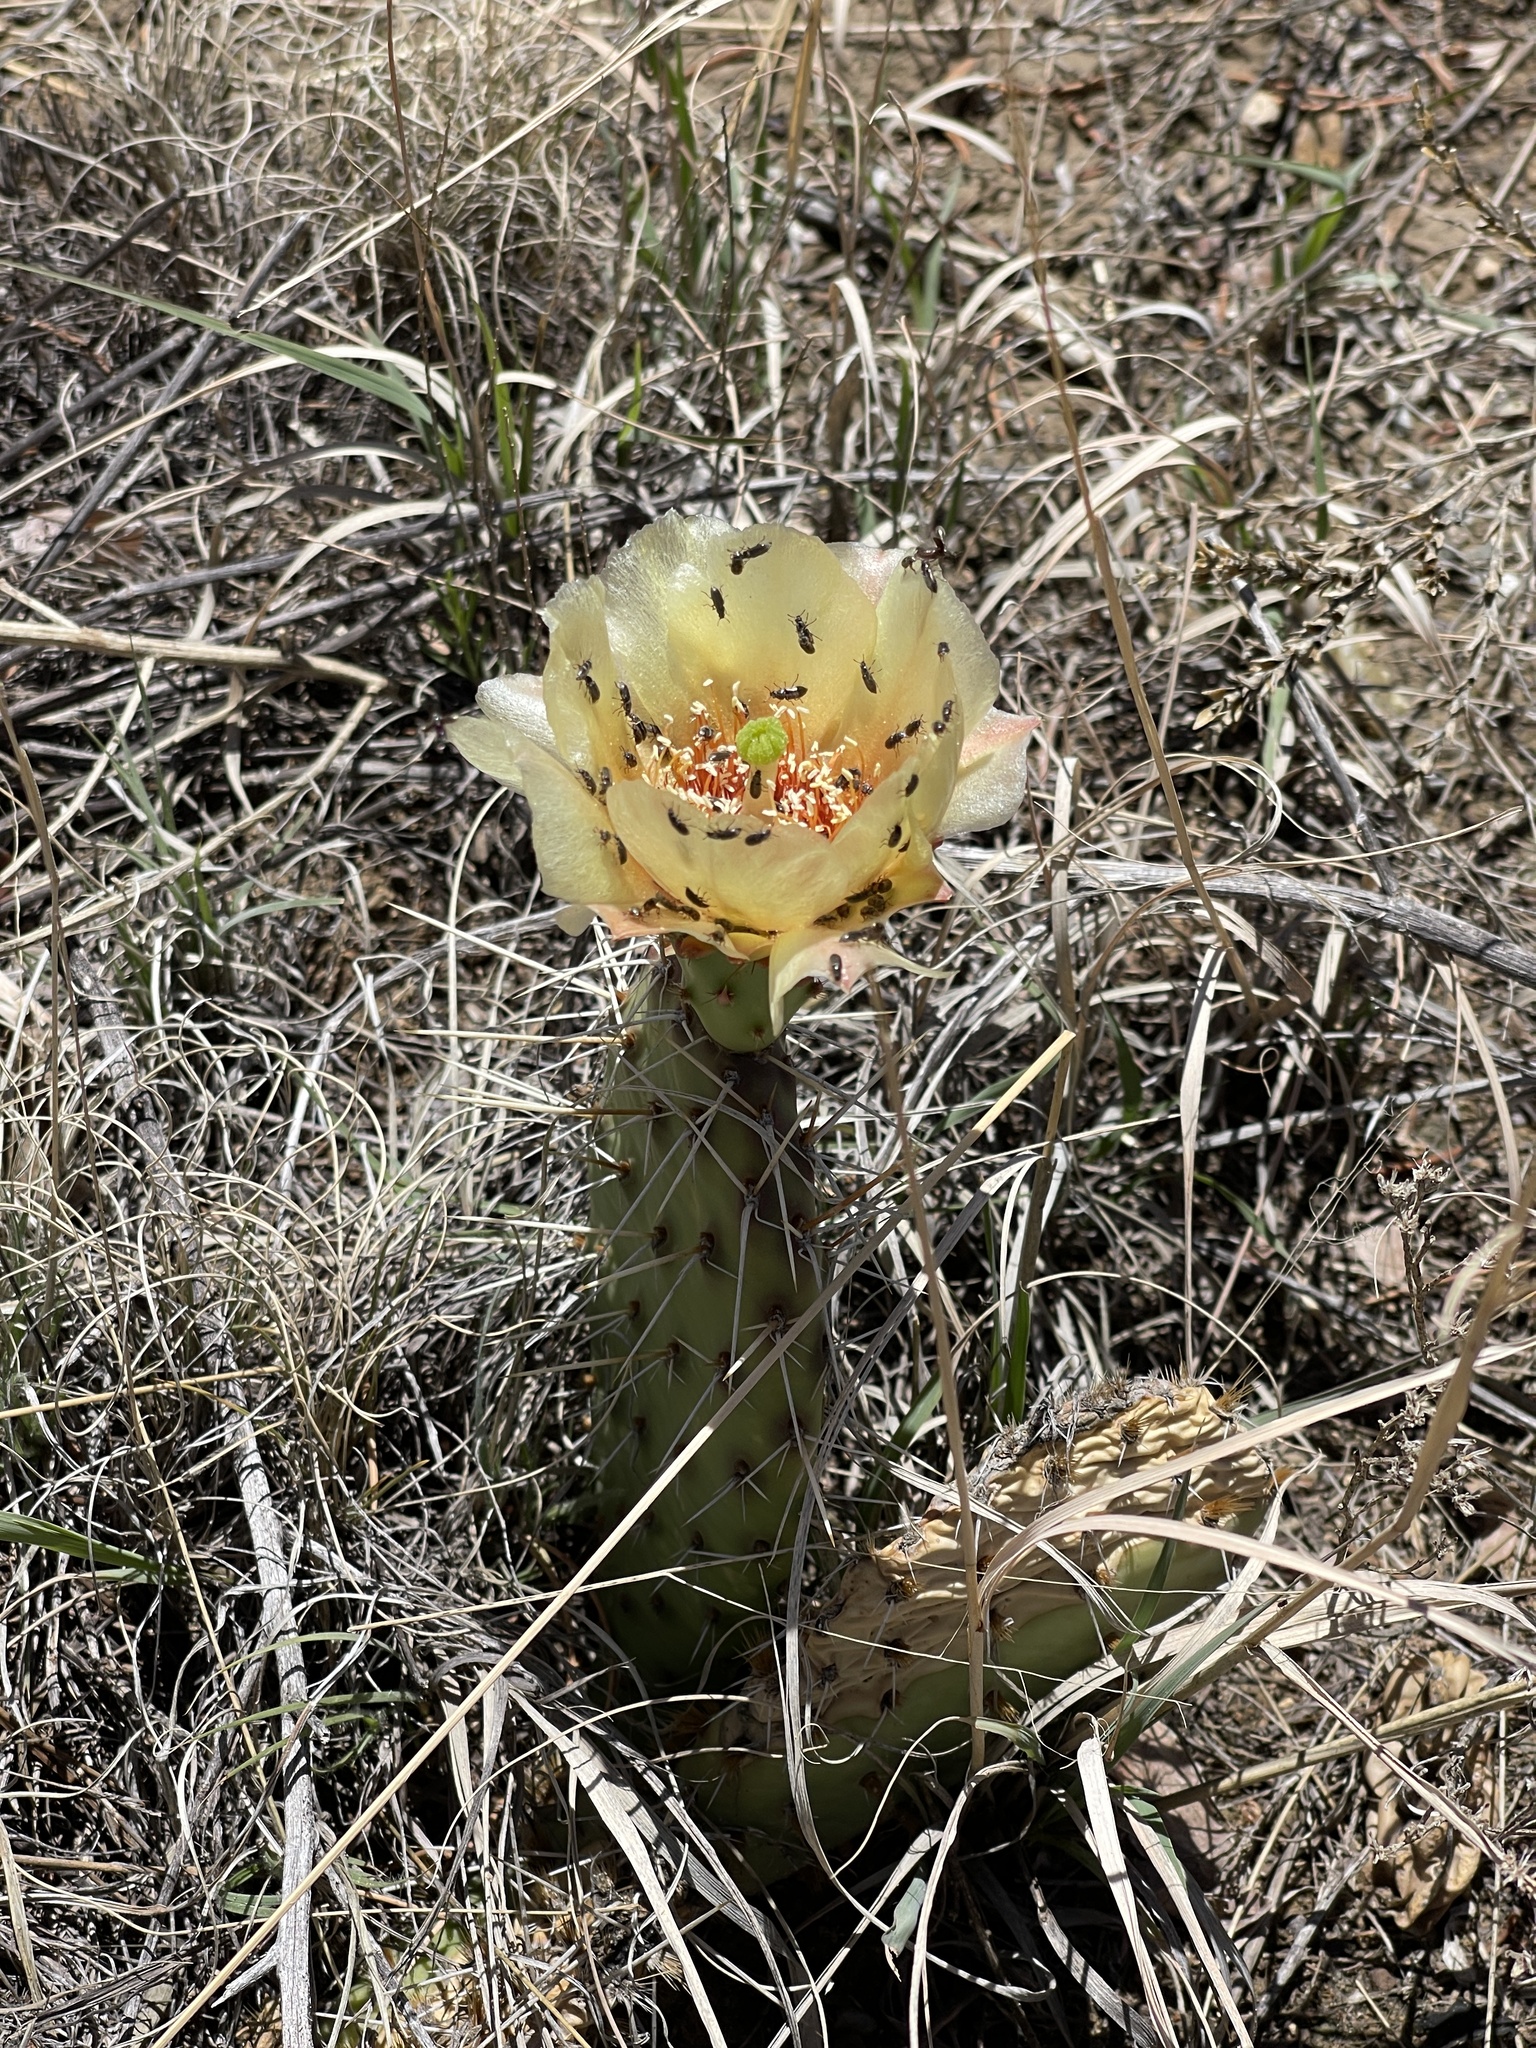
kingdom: Plantae
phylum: Tracheophyta
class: Magnoliopsida
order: Caryophyllales
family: Cactaceae
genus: Opuntia
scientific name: Opuntia polyacantha
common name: Plains prickly-pear
